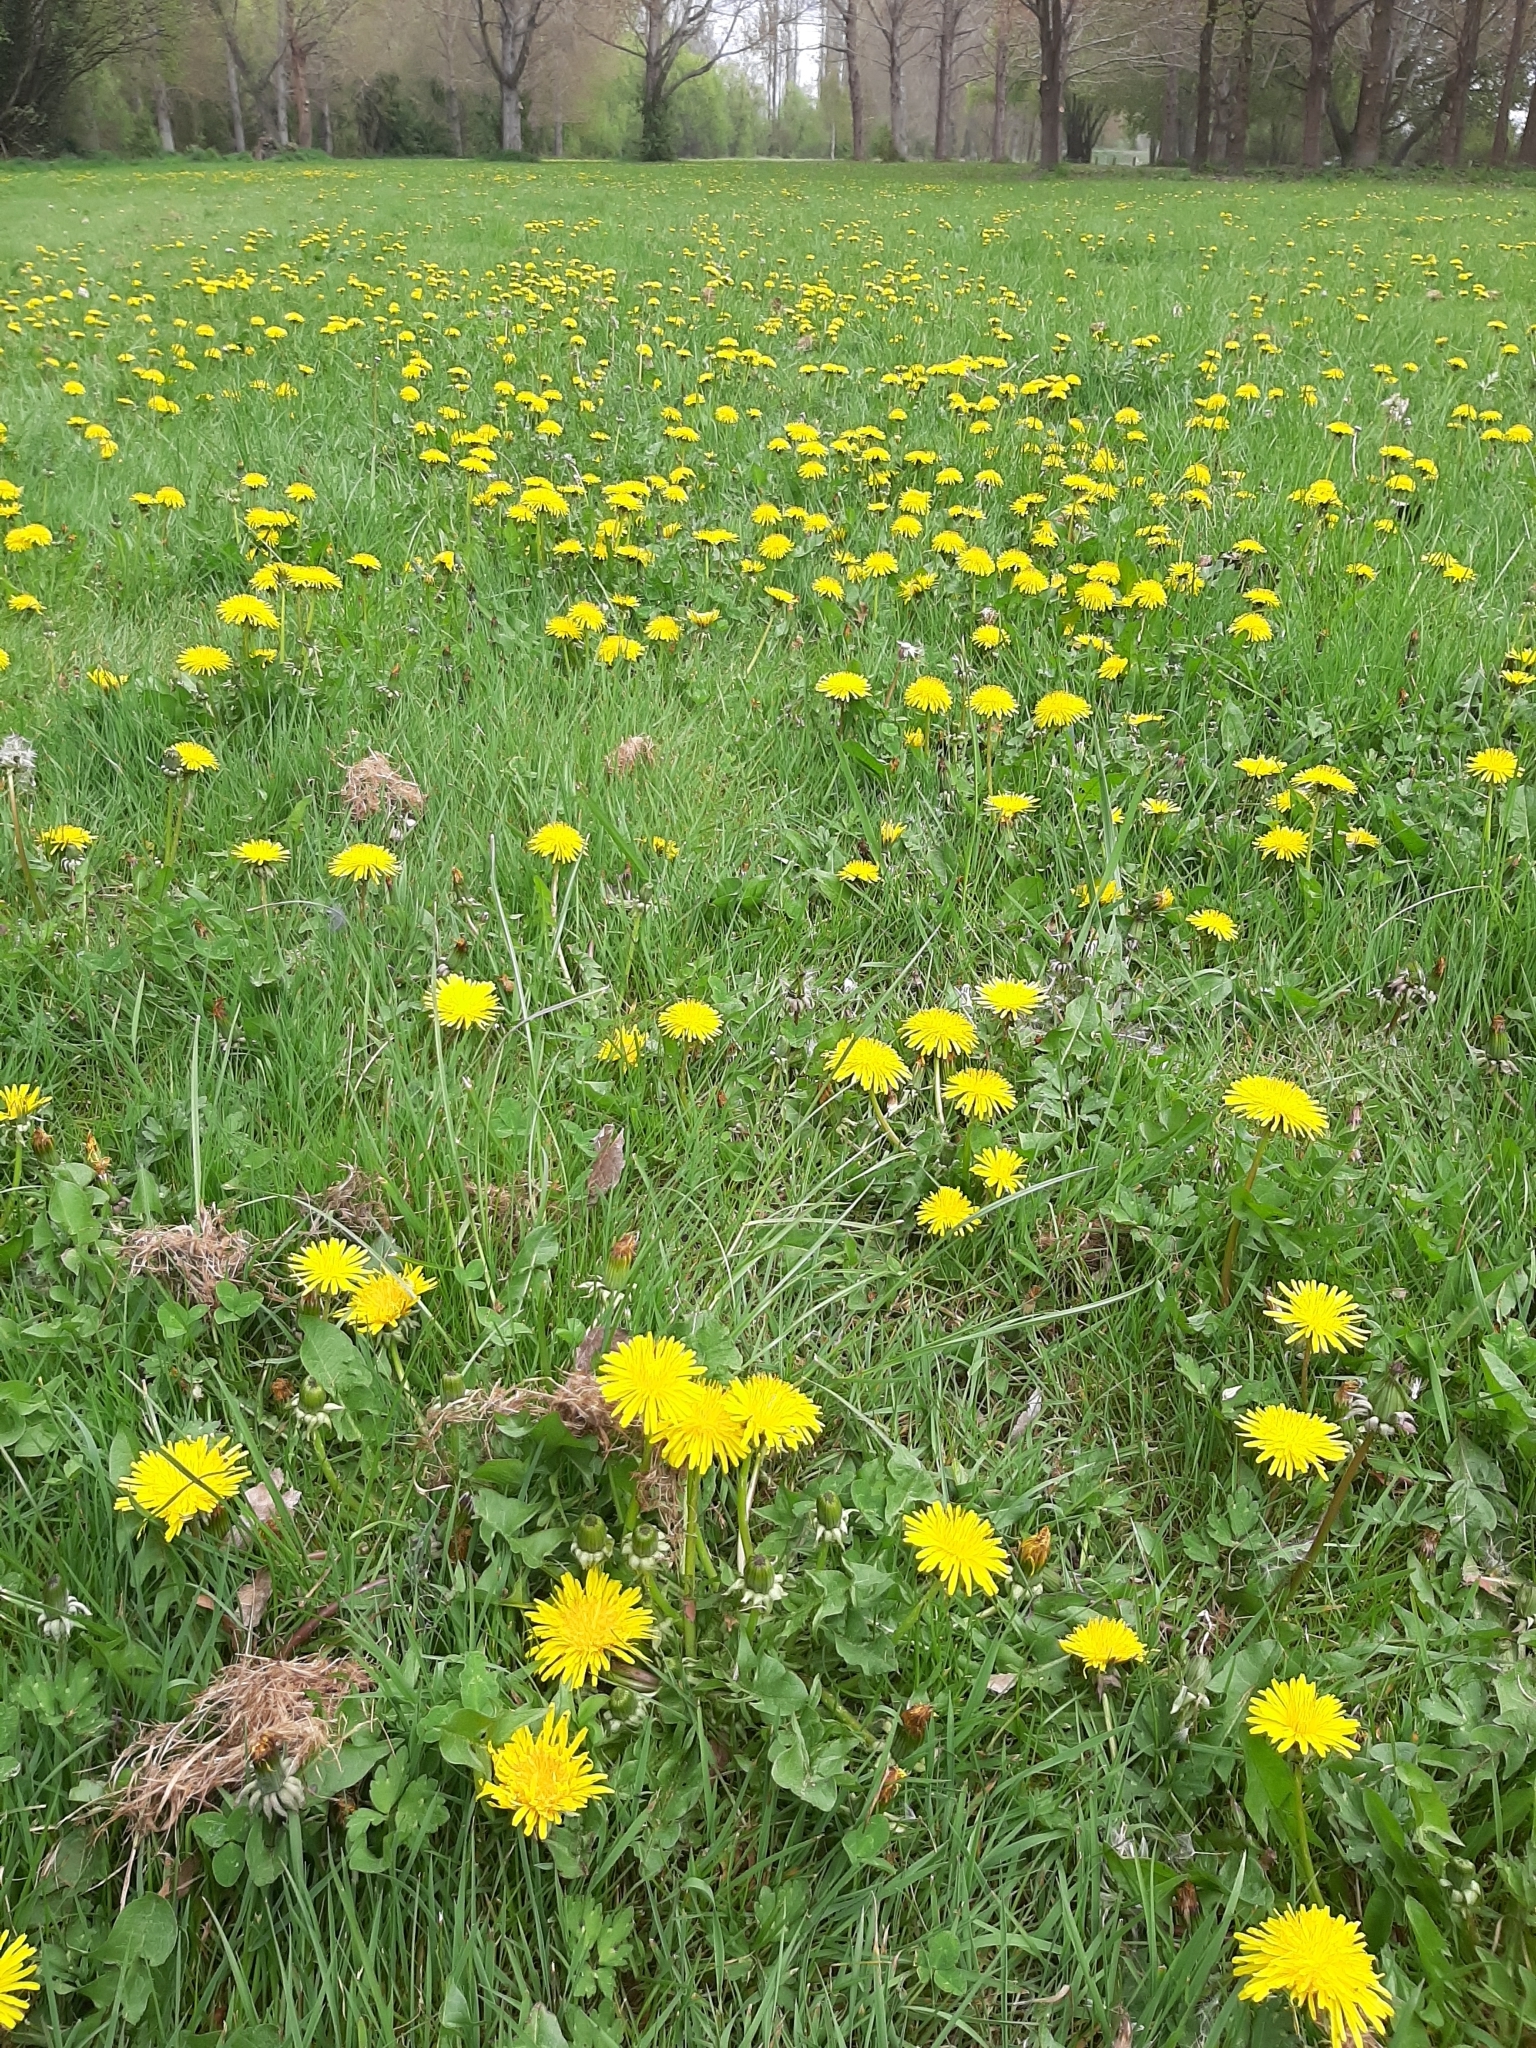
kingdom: Plantae
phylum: Tracheophyta
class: Magnoliopsida
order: Asterales
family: Asteraceae
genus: Taraxacum
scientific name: Taraxacum officinale
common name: Common dandelion
